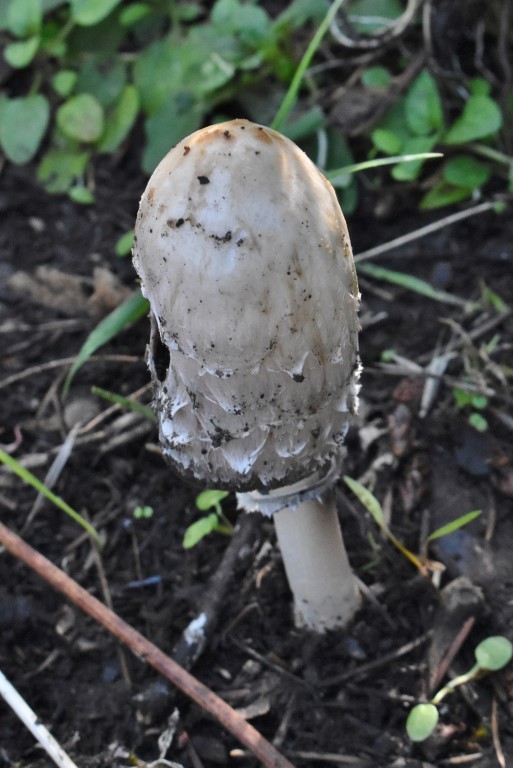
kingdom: Fungi
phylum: Basidiomycota
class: Agaricomycetes
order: Agaricales
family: Agaricaceae
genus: Coprinus
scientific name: Coprinus comatus
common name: Lawyer's wig
